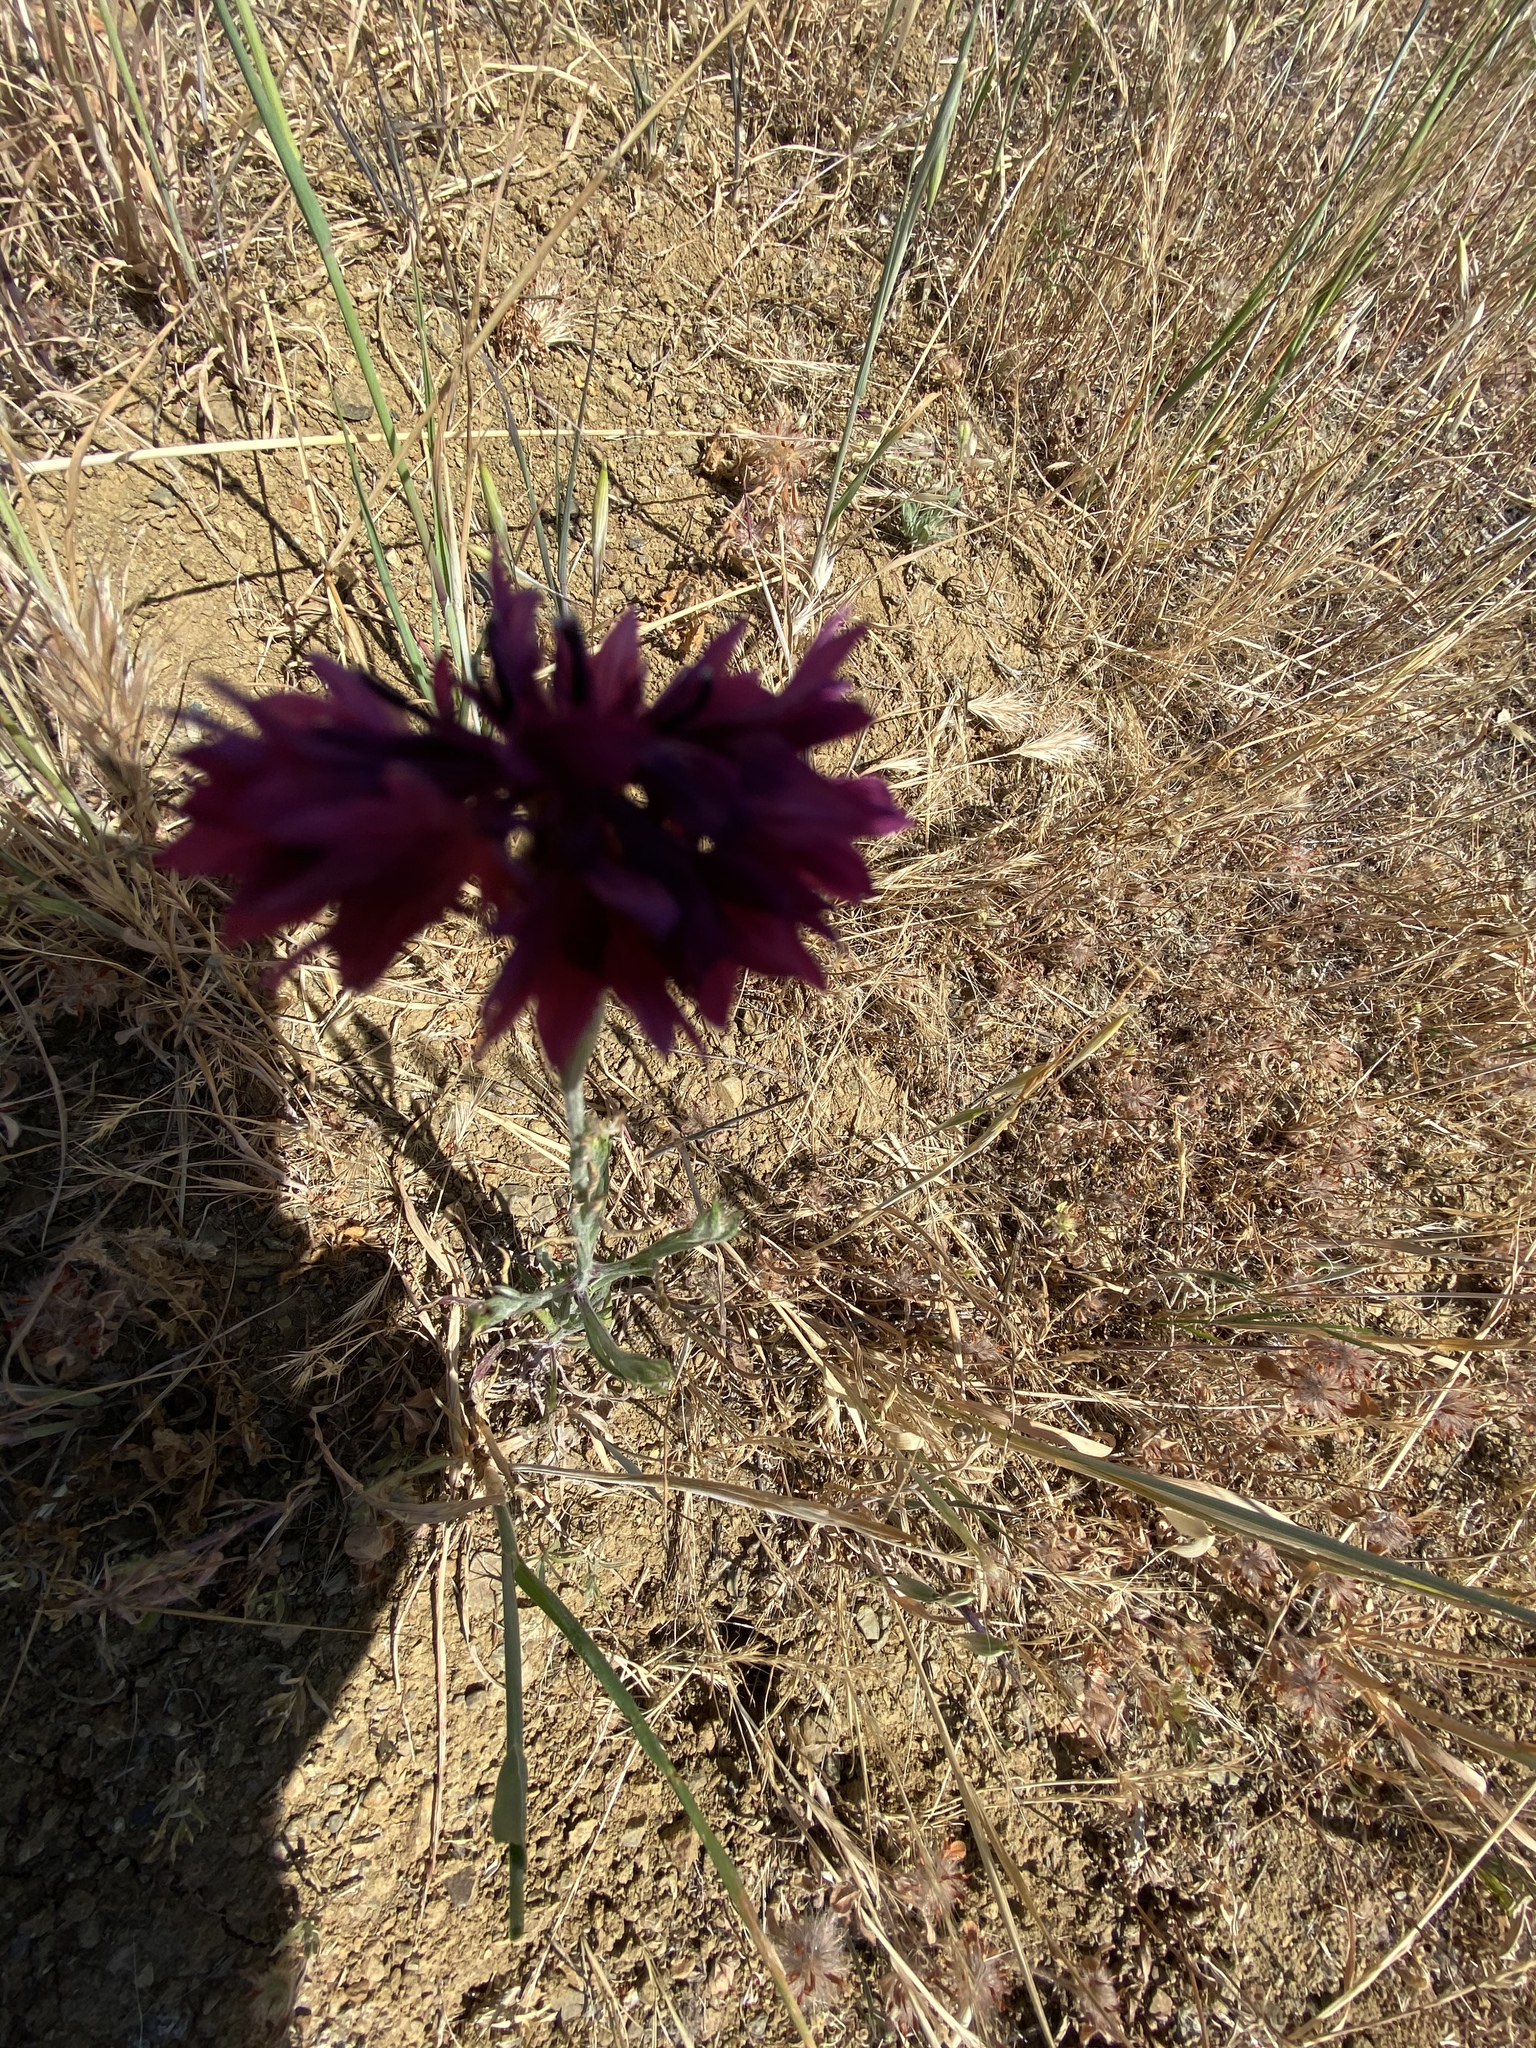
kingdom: Plantae
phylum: Tracheophyta
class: Magnoliopsida
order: Asterales
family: Asteraceae
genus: Centaurea
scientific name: Centaurea cyanus
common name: Cornflower
